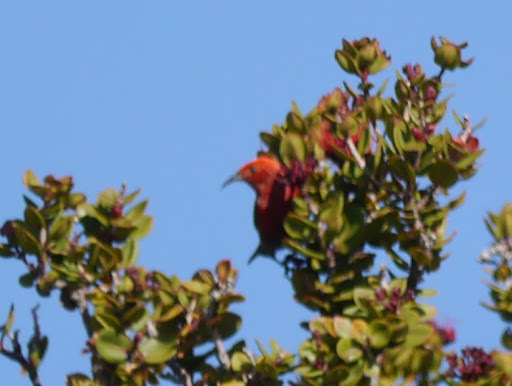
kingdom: Animalia
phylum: Chordata
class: Aves
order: Passeriformes
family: Fringillidae
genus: Himatione
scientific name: Himatione sanguinea
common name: Apapane
